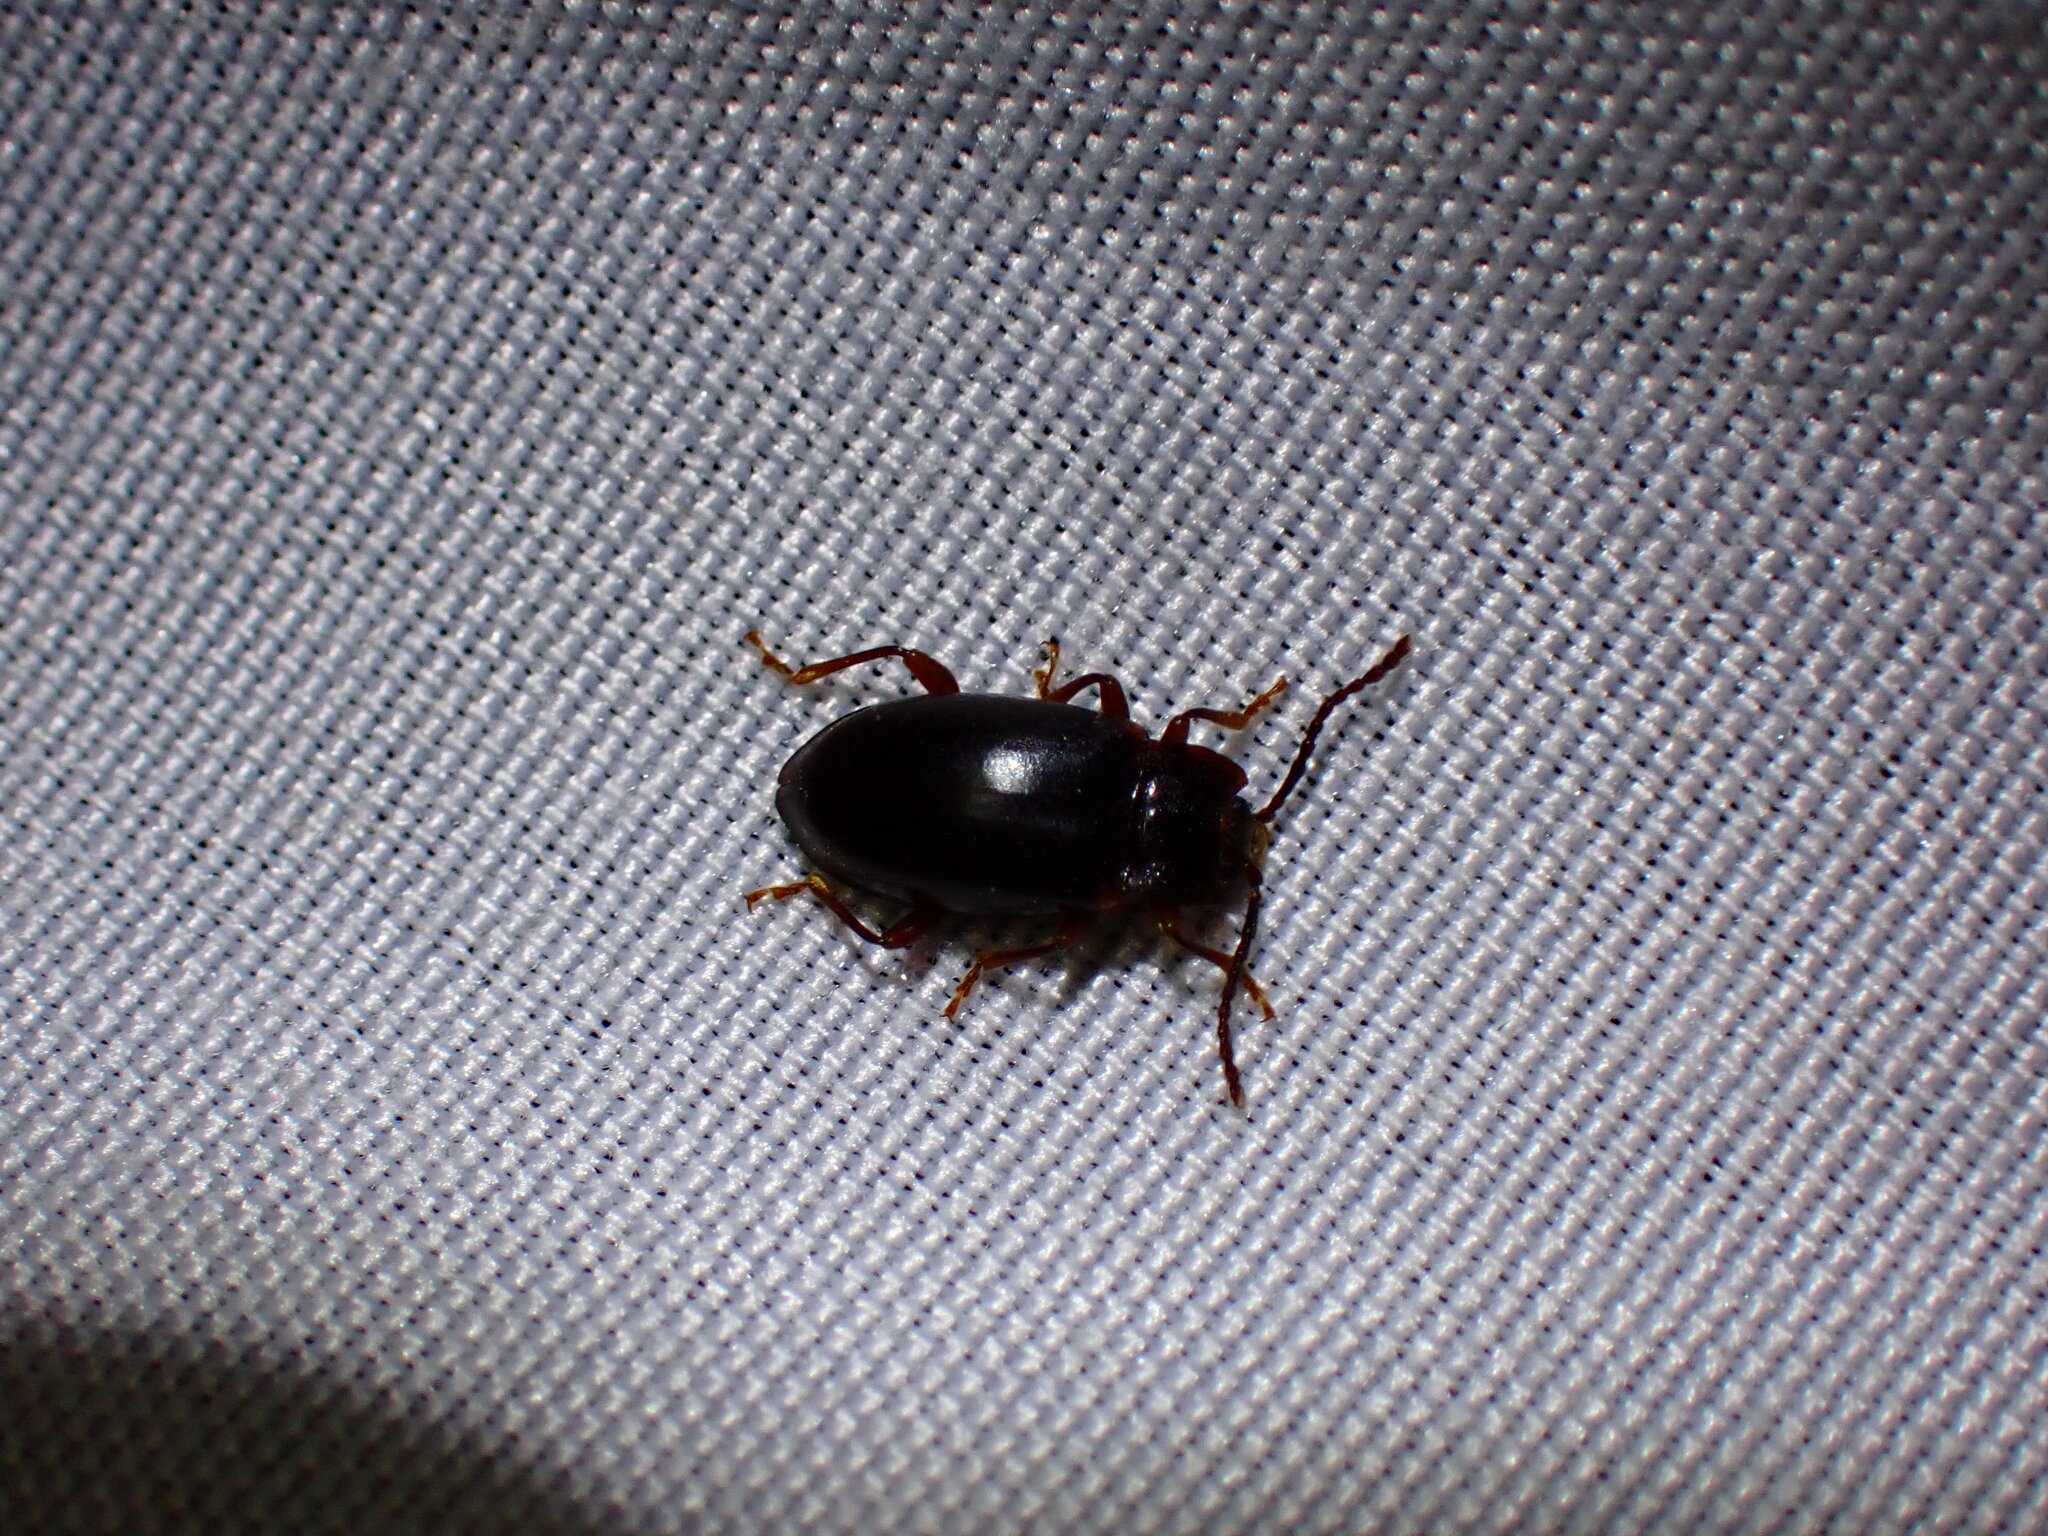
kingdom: Animalia
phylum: Arthropoda
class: Insecta
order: Coleoptera
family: Endomychidae
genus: Aphorista
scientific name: Aphorista morosa
